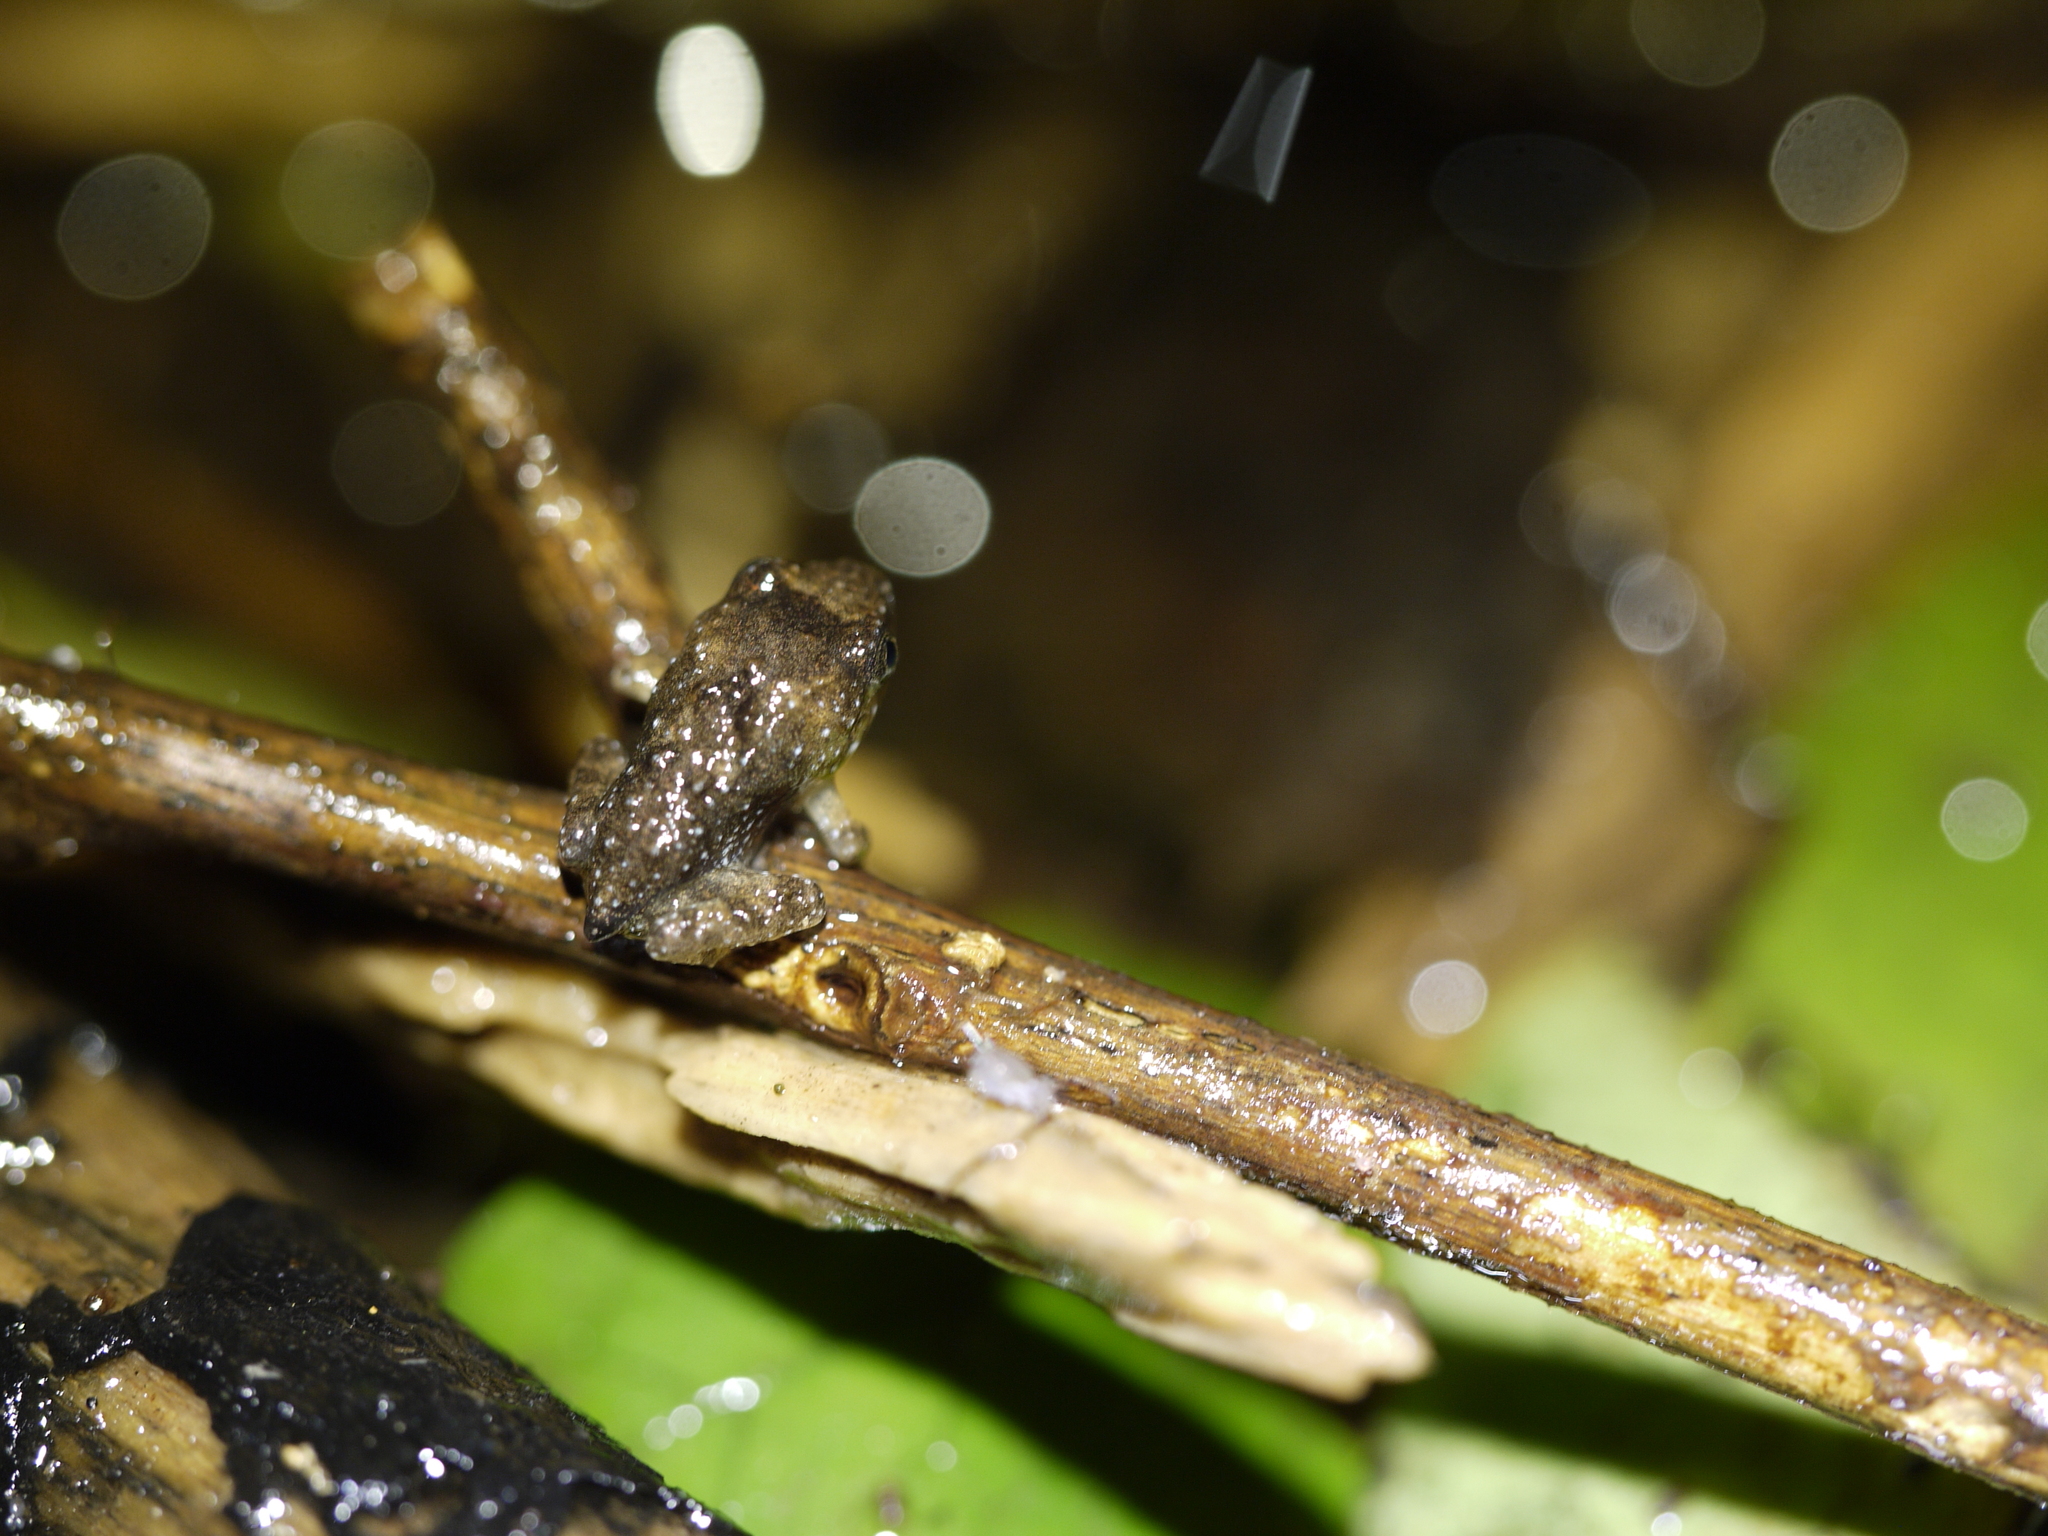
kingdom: Animalia
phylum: Chordata
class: Amphibia
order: Anura
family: Dicroglossidae
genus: Limnonectes
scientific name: Limnonectes fujianensis
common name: Fujian large-headed frog
